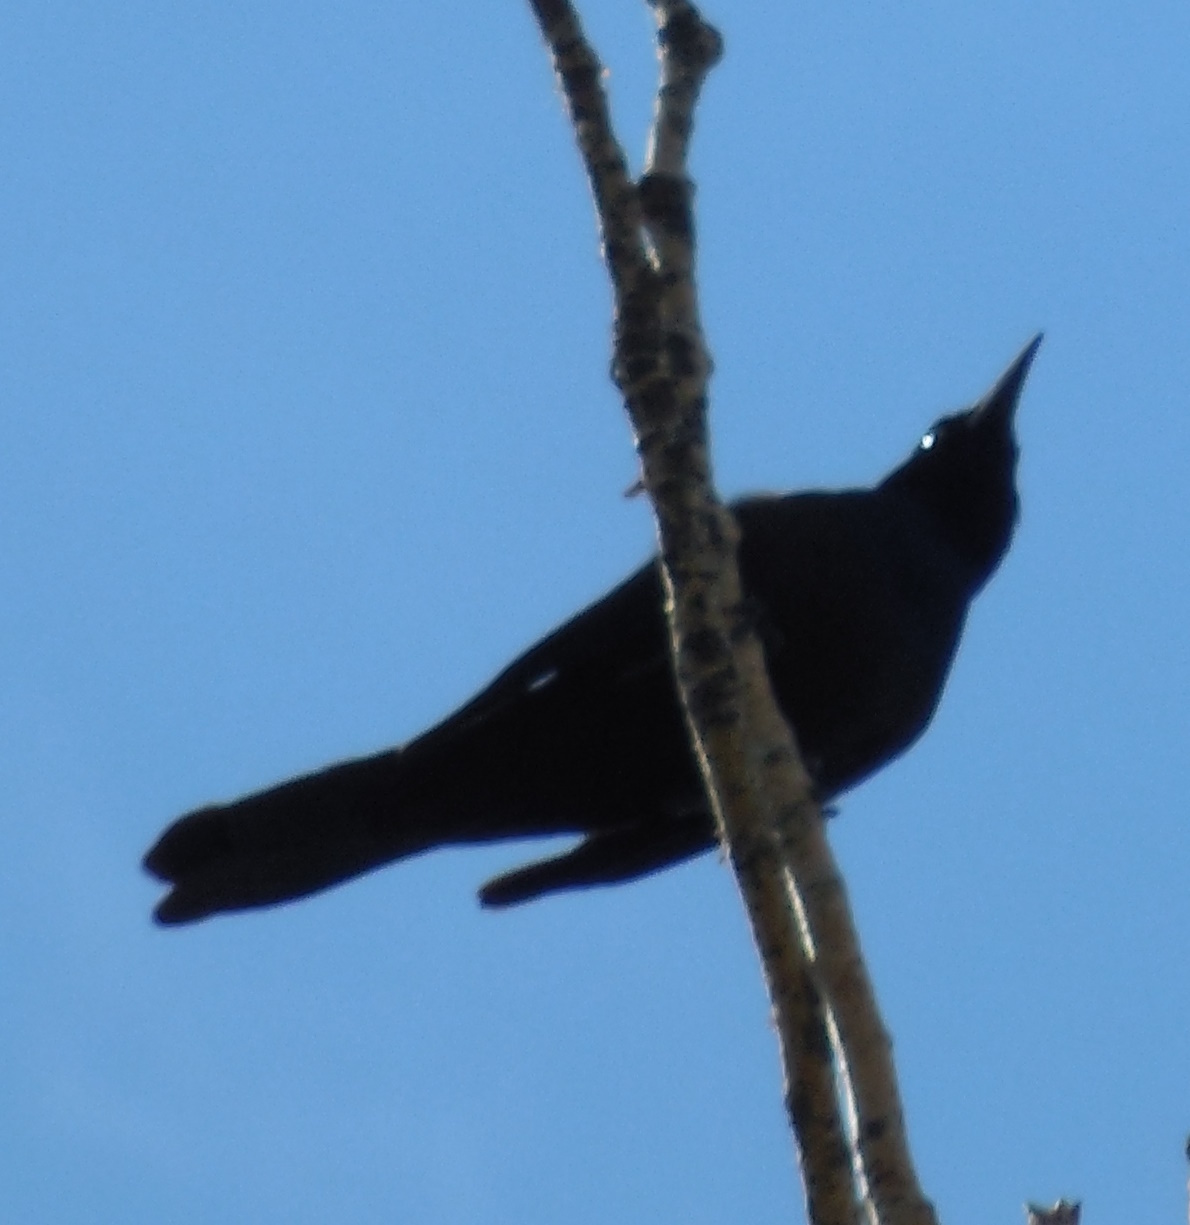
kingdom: Animalia
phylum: Chordata
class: Aves
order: Passeriformes
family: Icteridae
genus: Quiscalus
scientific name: Quiscalus quiscula
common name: Common grackle
